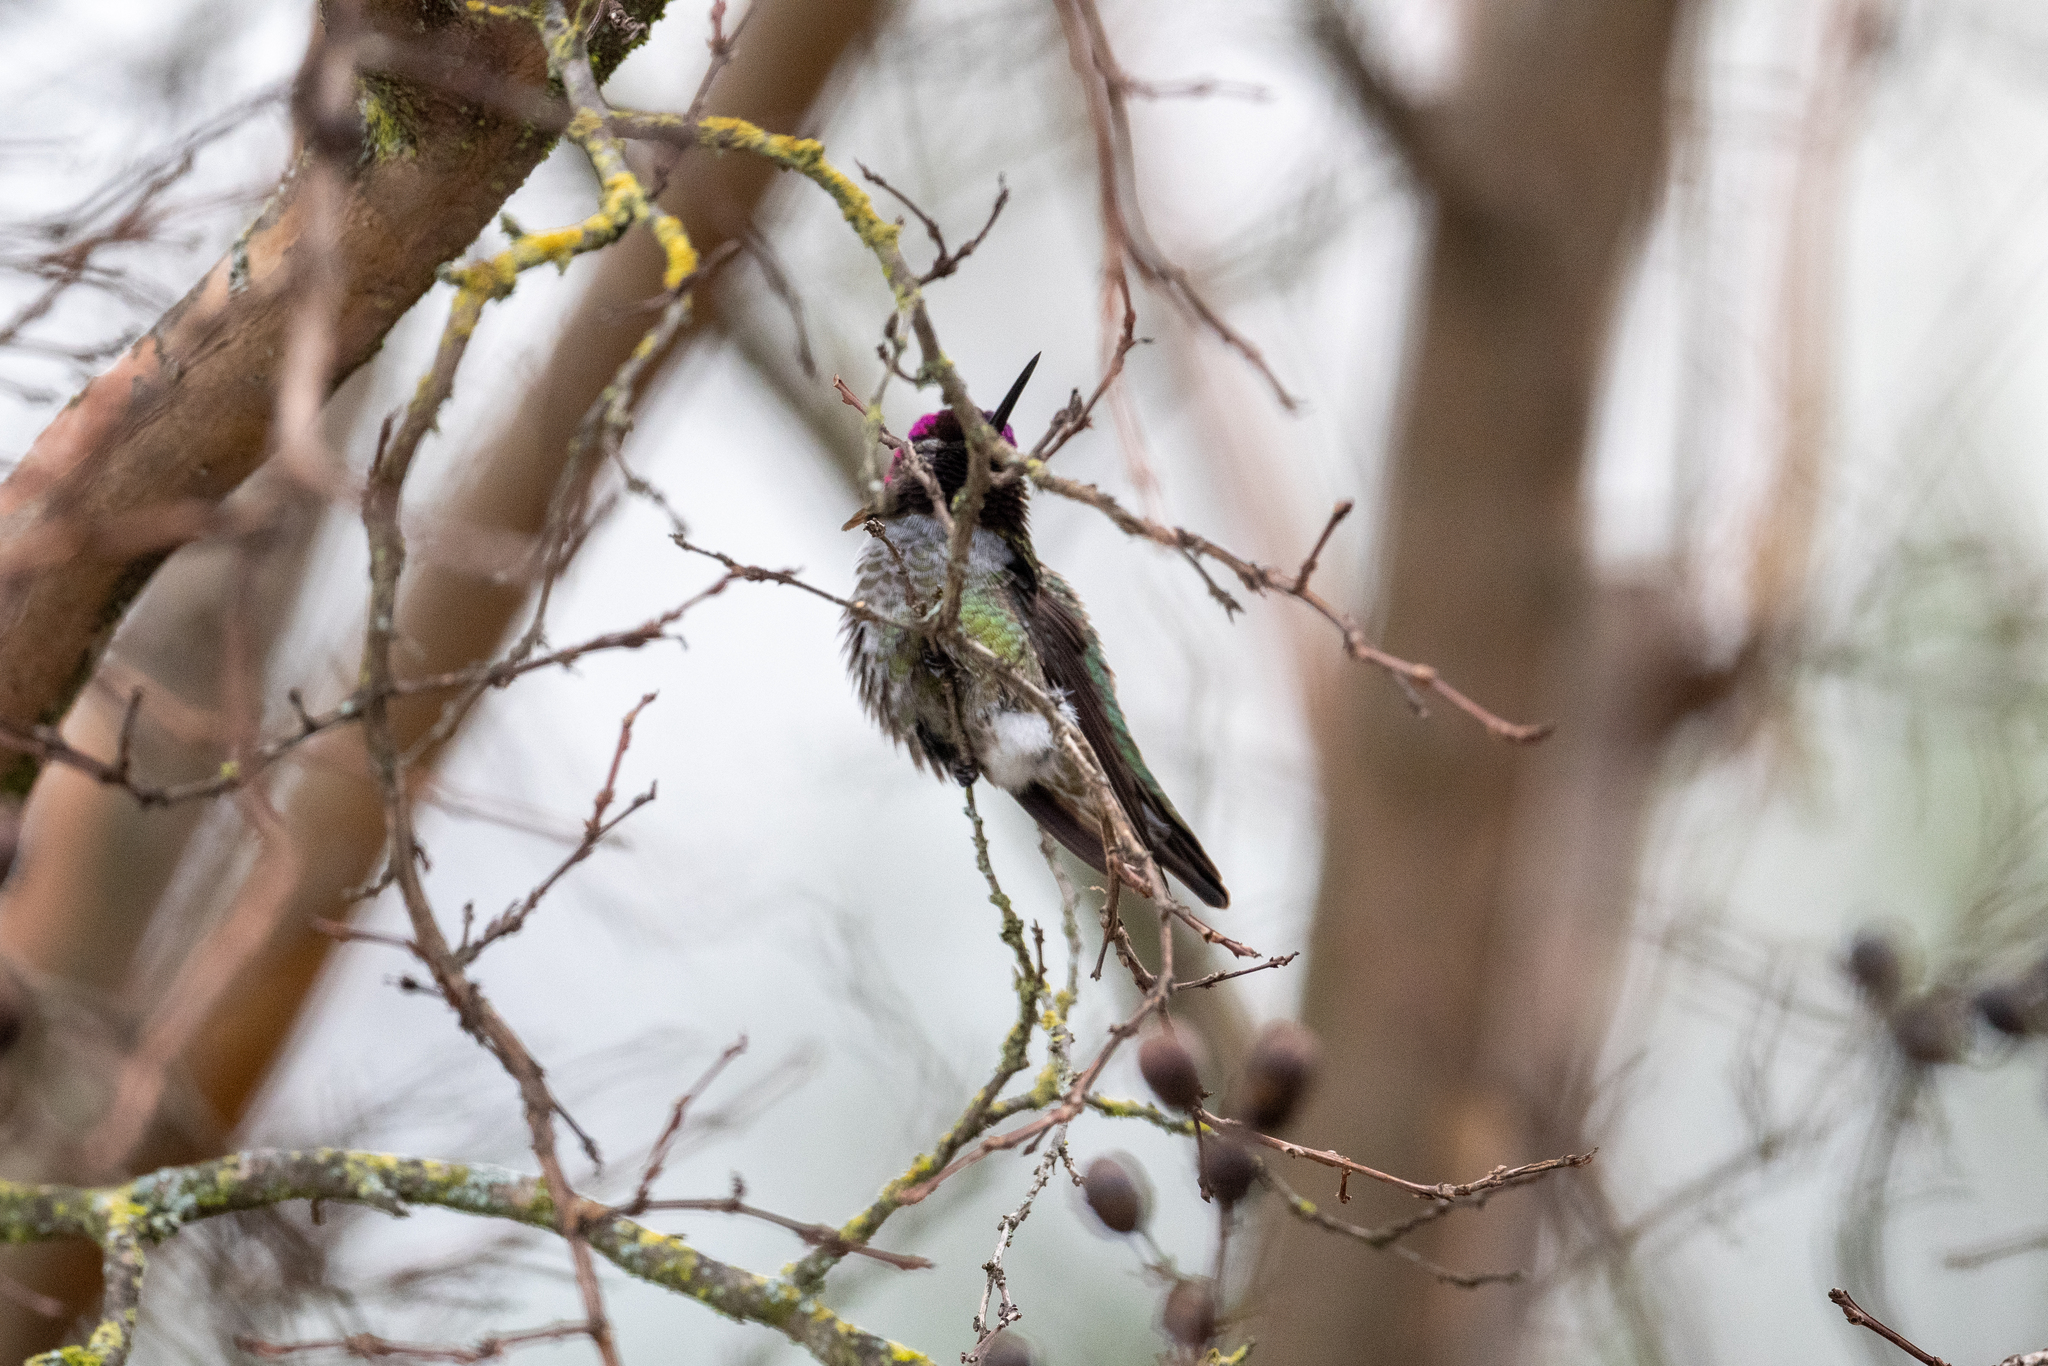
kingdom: Animalia
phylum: Chordata
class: Aves
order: Apodiformes
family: Trochilidae
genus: Calypte
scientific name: Calypte anna
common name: Anna's hummingbird
